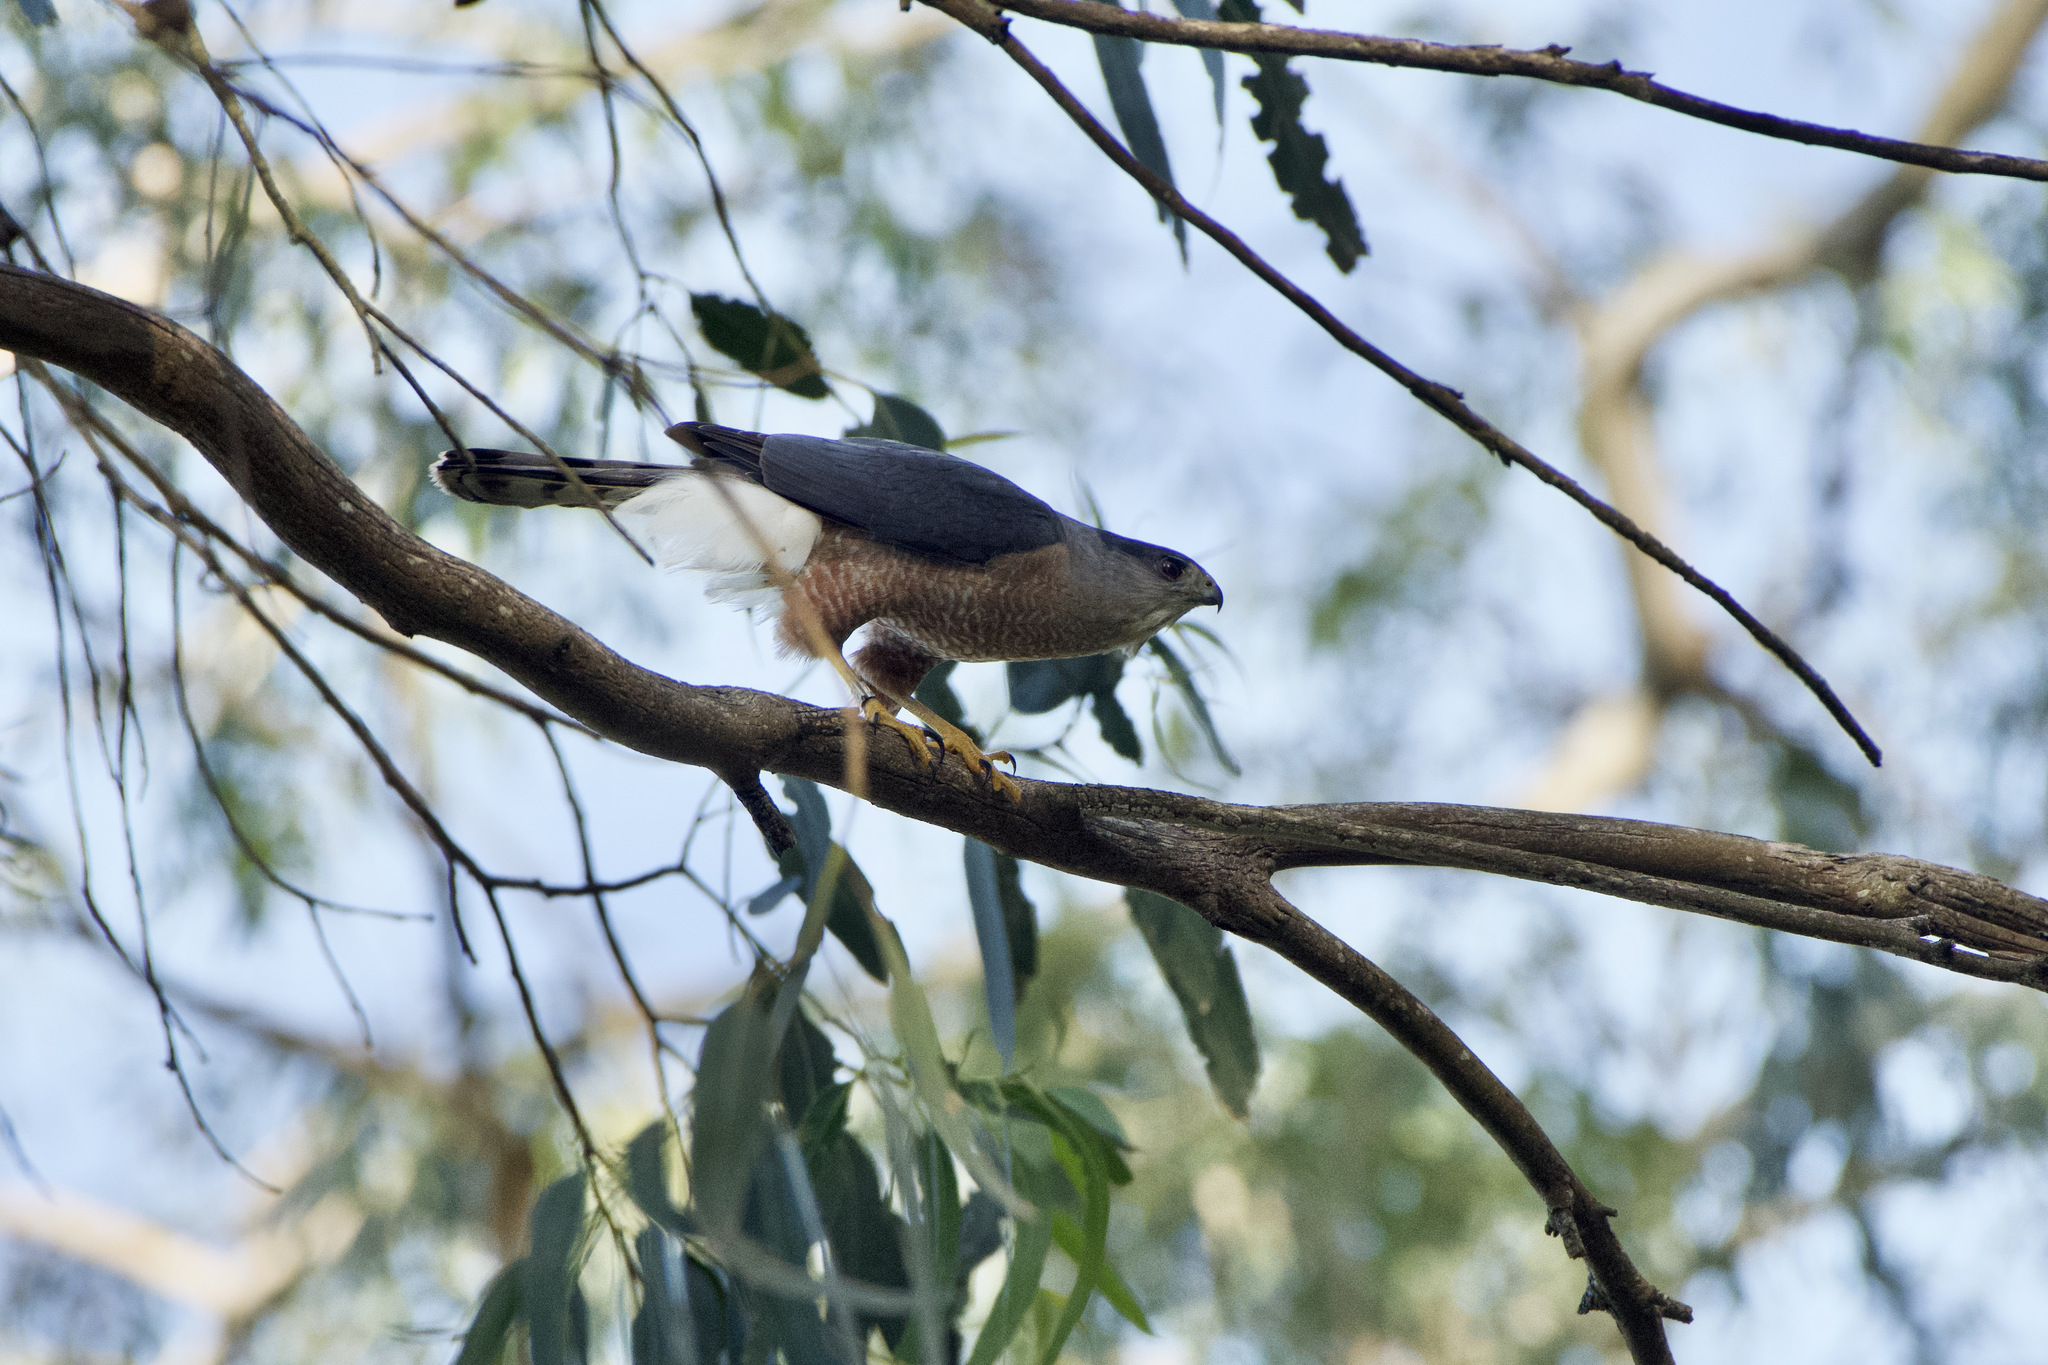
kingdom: Animalia
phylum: Chordata
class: Aves
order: Accipitriformes
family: Accipitridae
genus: Accipiter
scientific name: Accipiter cooperii
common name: Cooper's hawk
